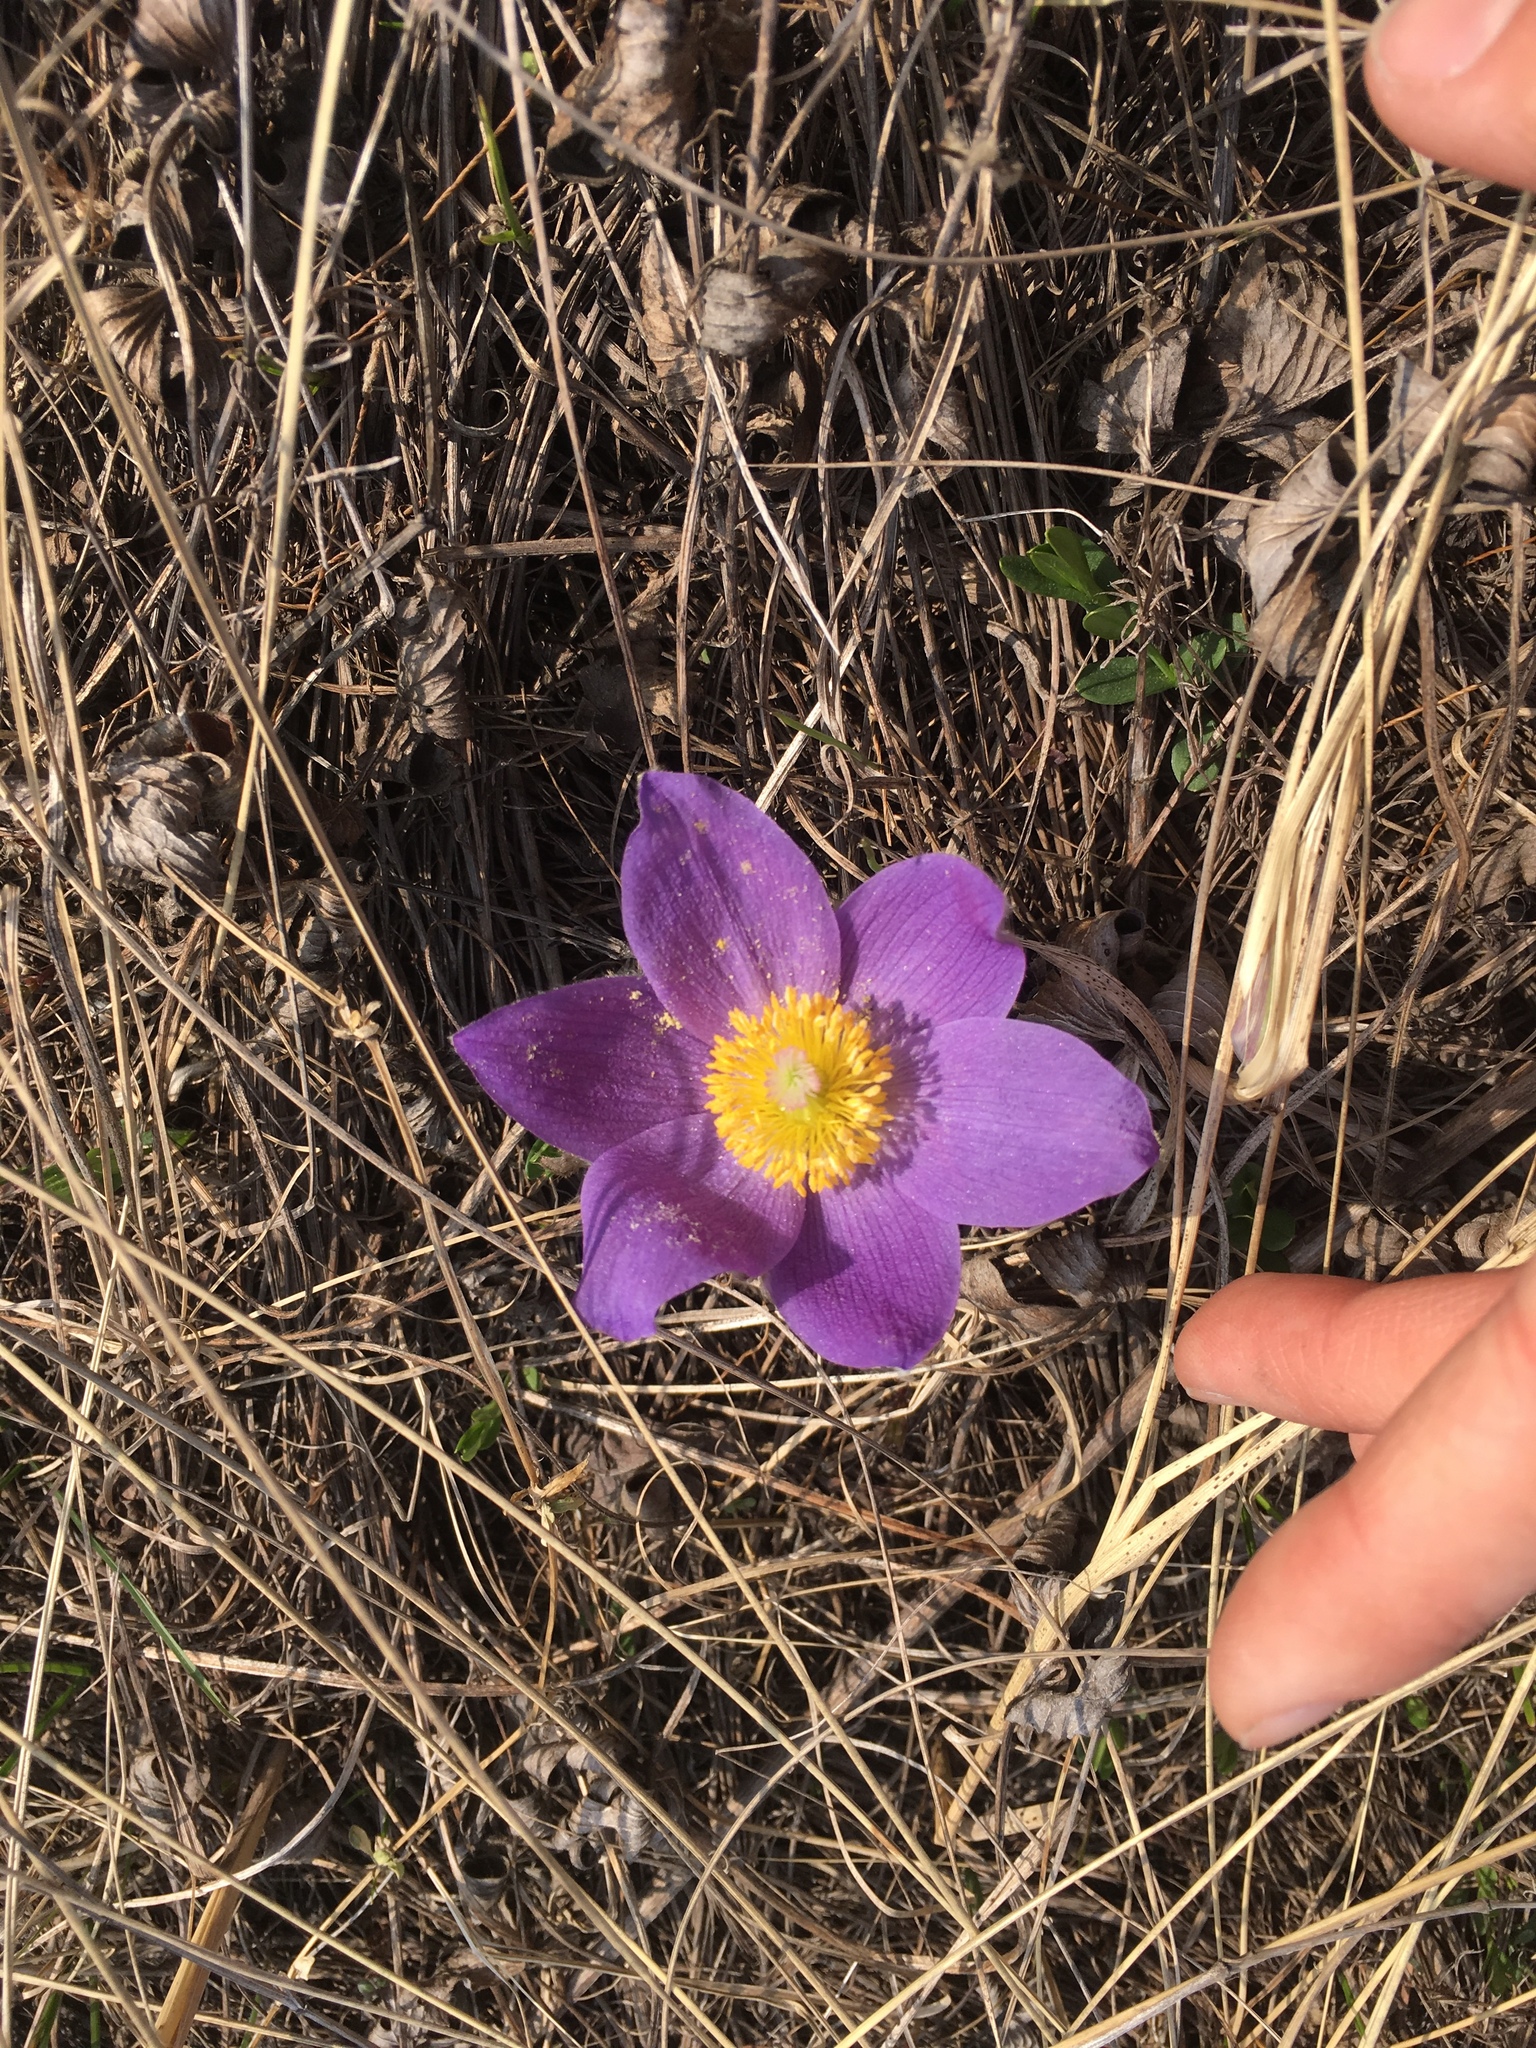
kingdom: Plantae
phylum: Tracheophyta
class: Magnoliopsida
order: Ranunculales
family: Ranunculaceae
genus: Pulsatilla
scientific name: Pulsatilla patens
